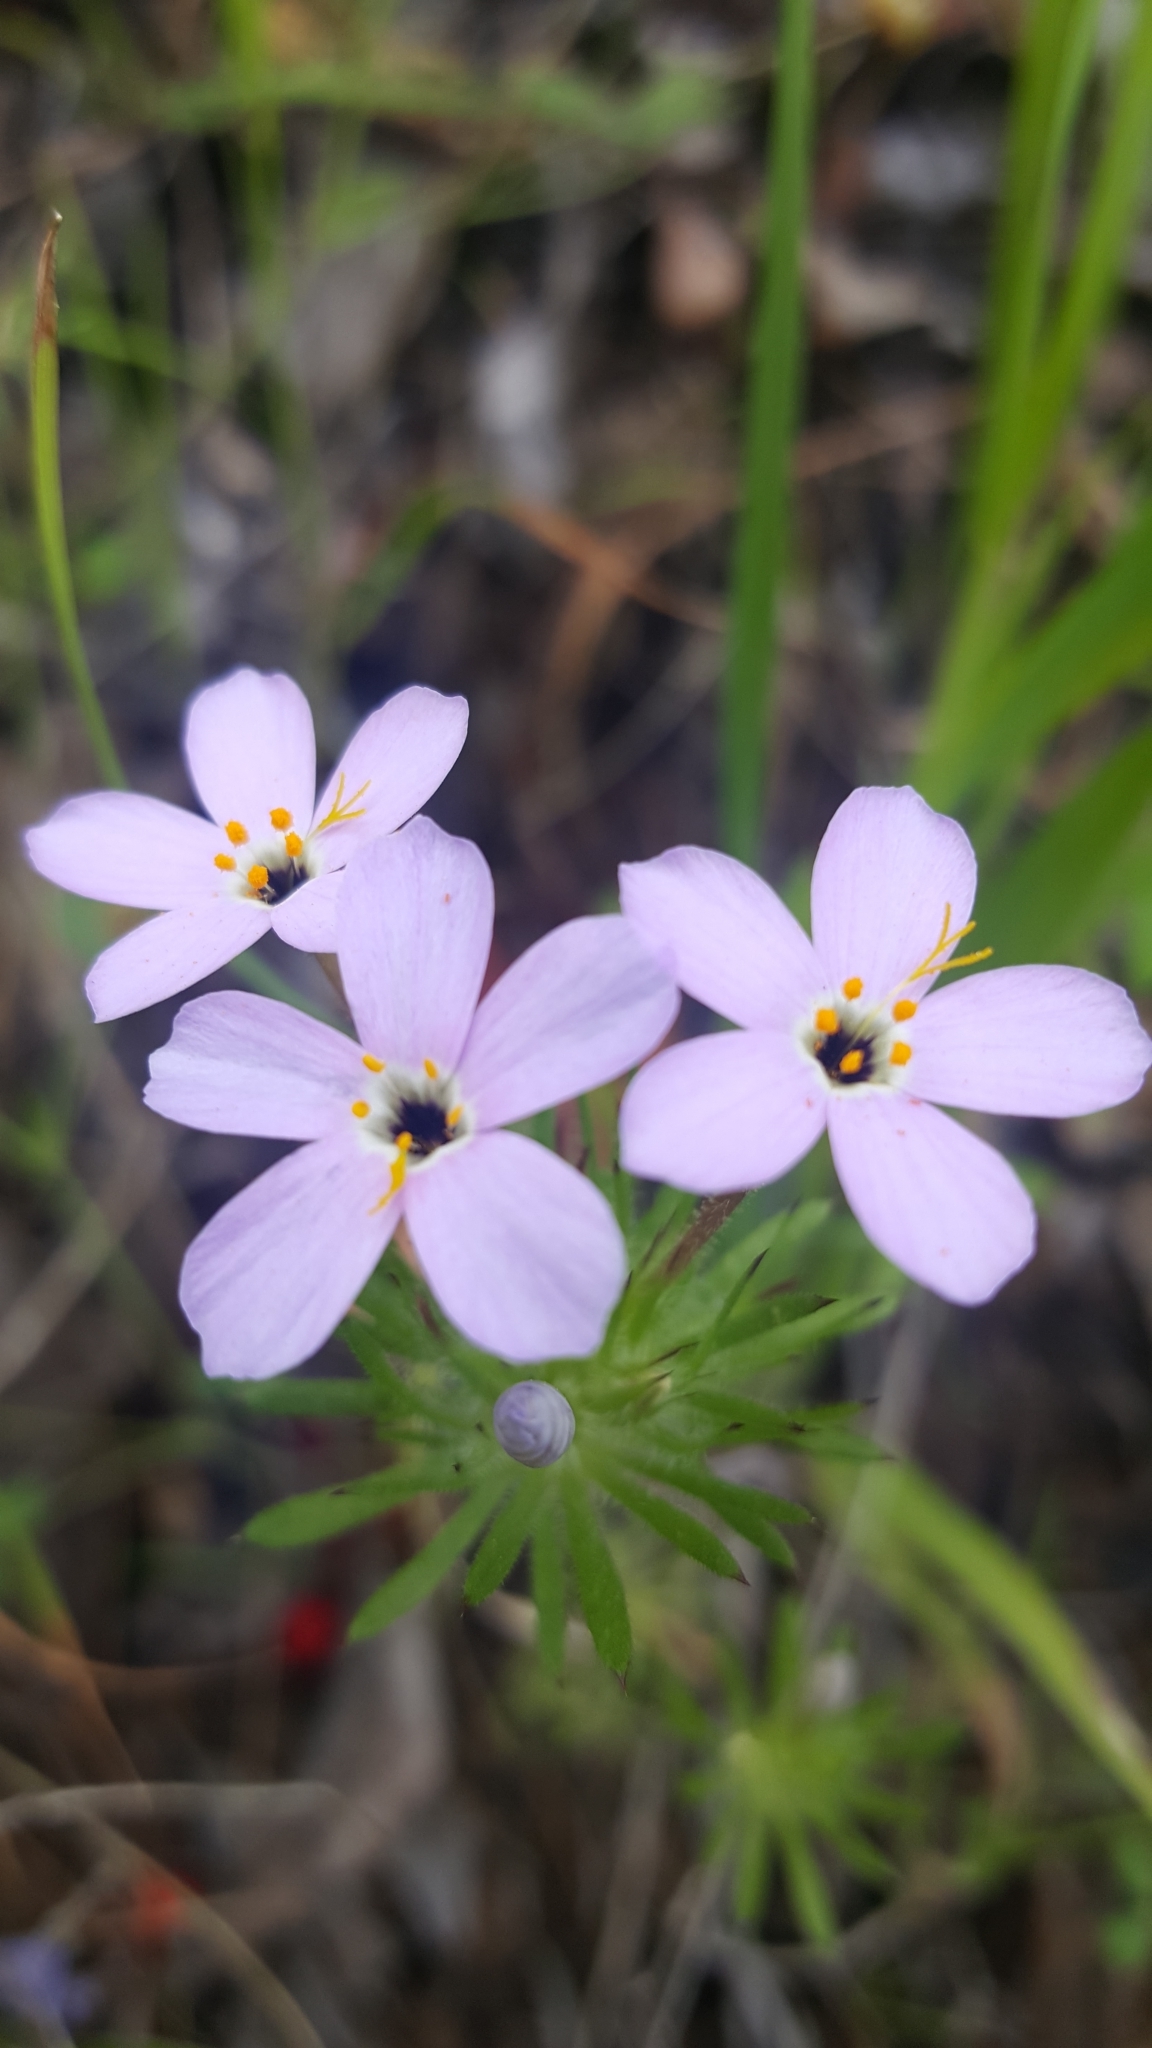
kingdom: Plantae
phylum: Tracheophyta
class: Magnoliopsida
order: Ericales
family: Polemoniaceae
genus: Leptosiphon
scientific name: Leptosiphon androsaceus
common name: False babystars
